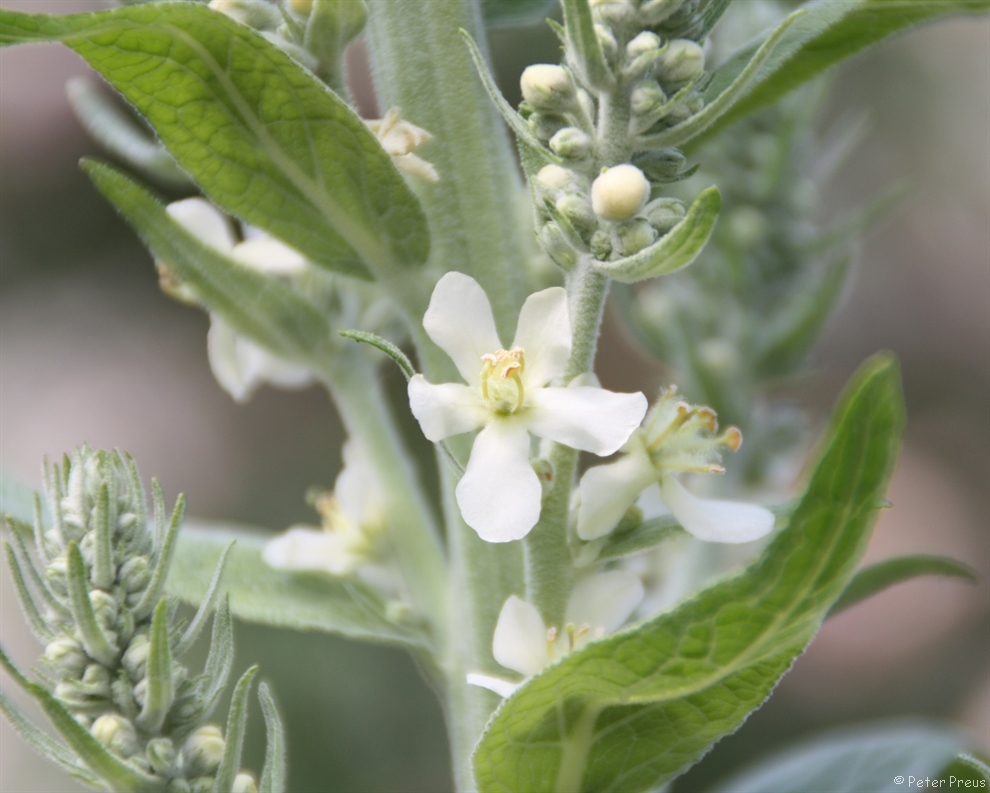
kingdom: Plantae
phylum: Tracheophyta
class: Magnoliopsida
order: Lamiales
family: Scrophulariaceae
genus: Verbascum
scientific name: Verbascum lychnitis
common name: White mullein
